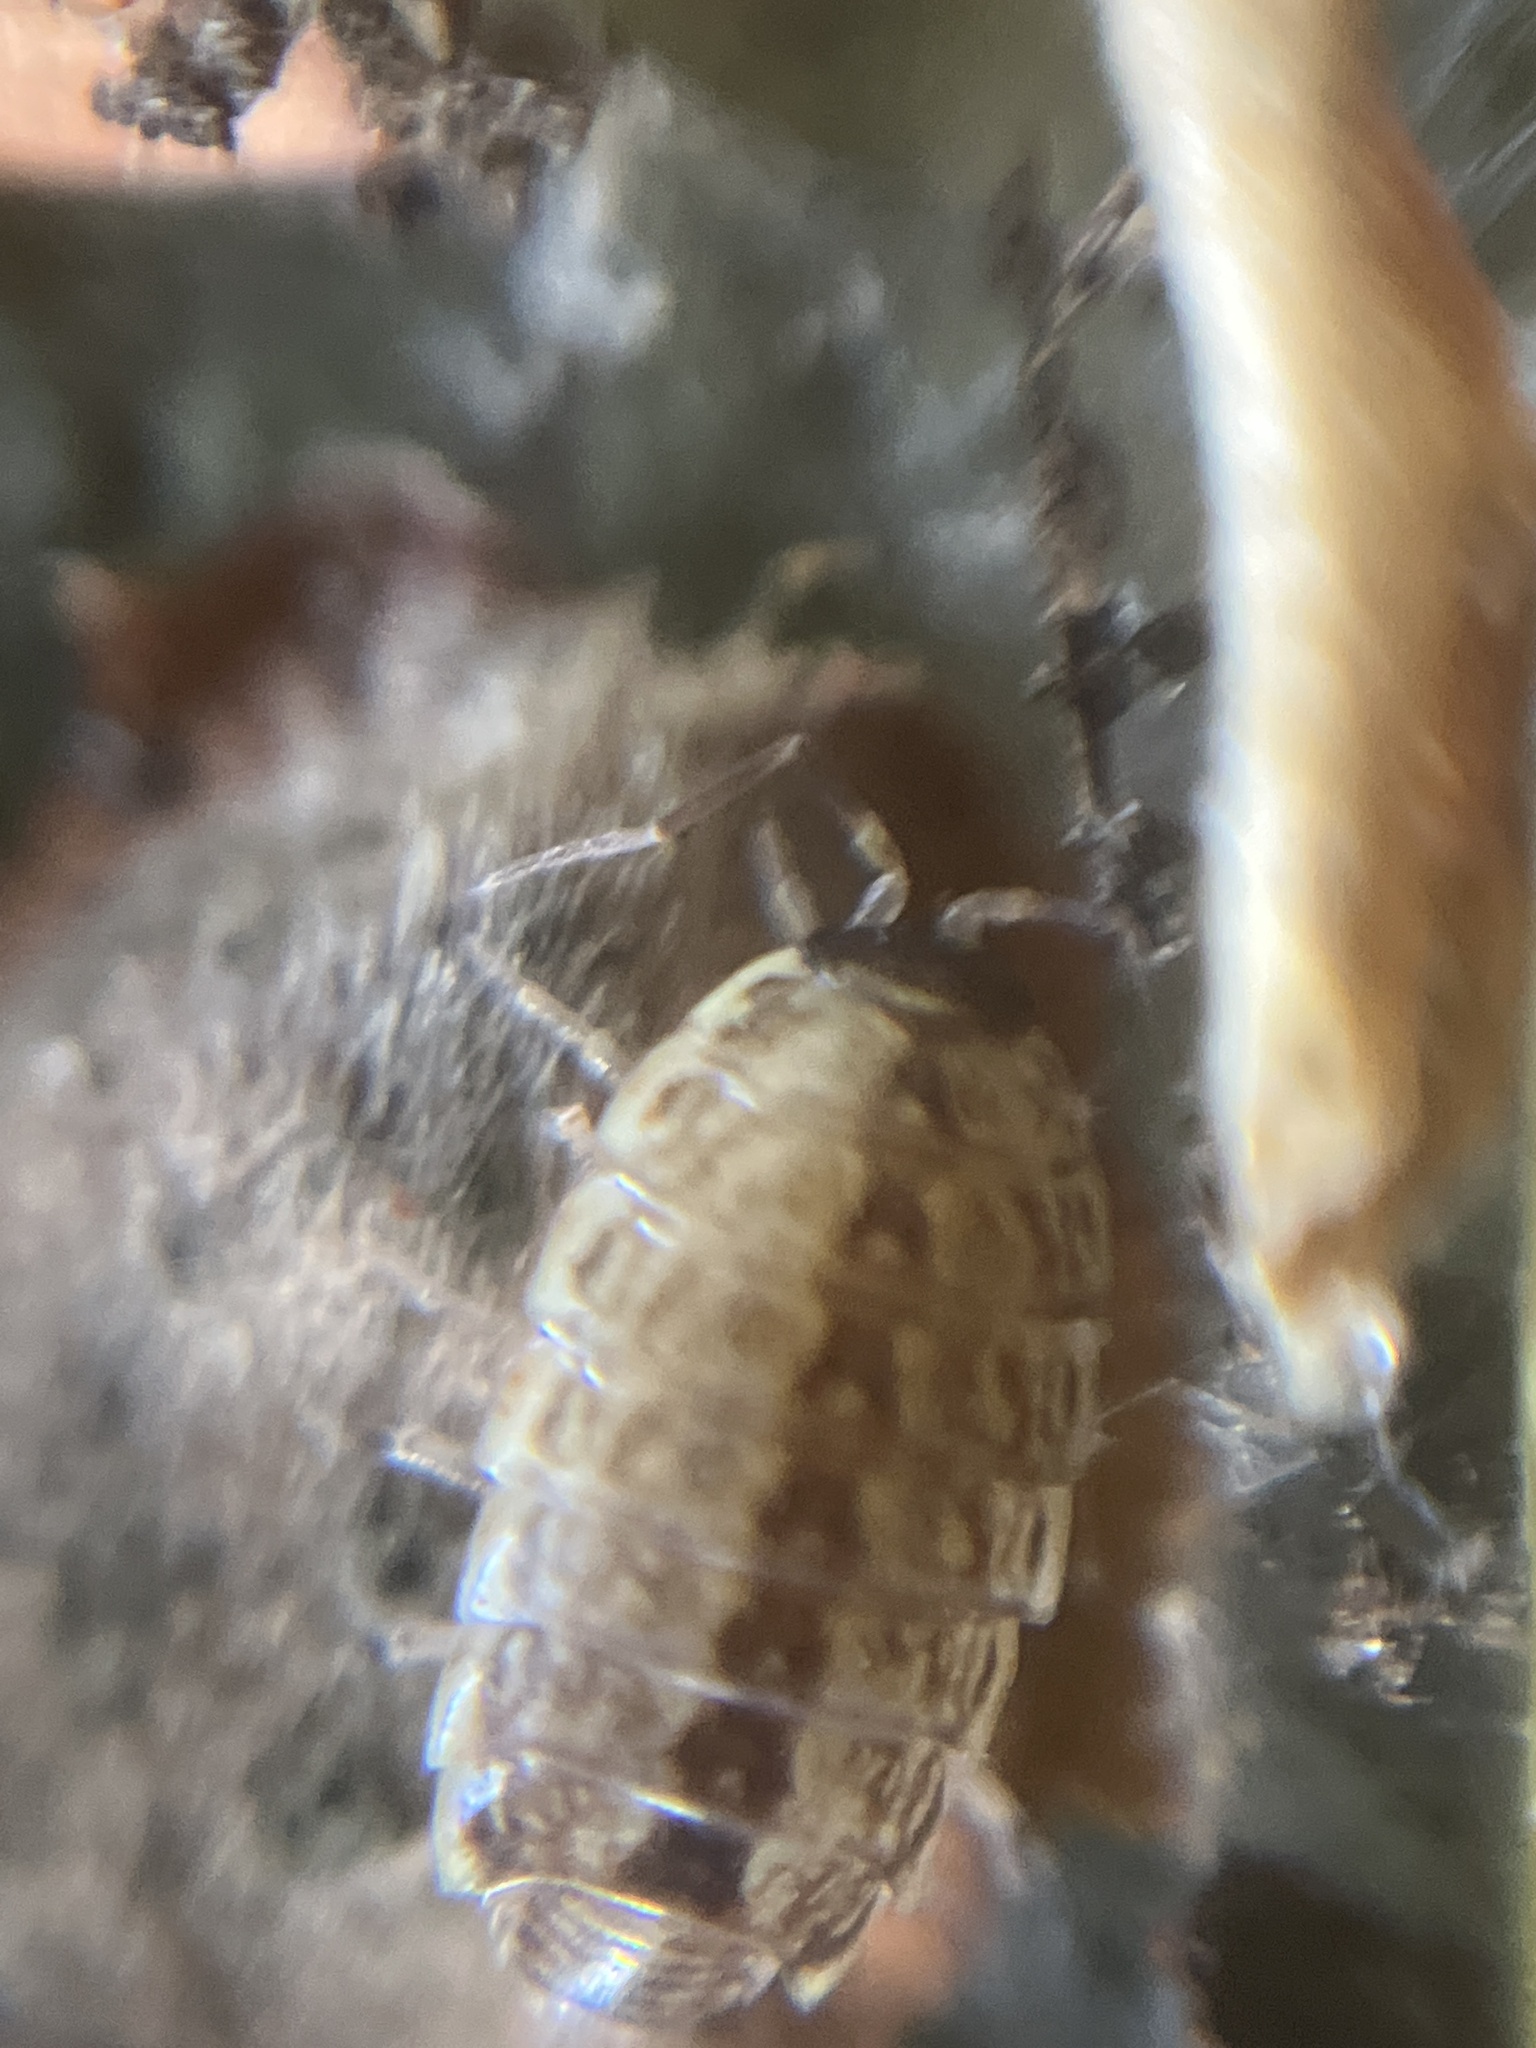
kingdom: Animalia
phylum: Arthropoda
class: Malacostraca
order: Isopoda
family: Philosciidae
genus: Philoscia
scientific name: Philoscia muscorum
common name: Common striped woodlouse
